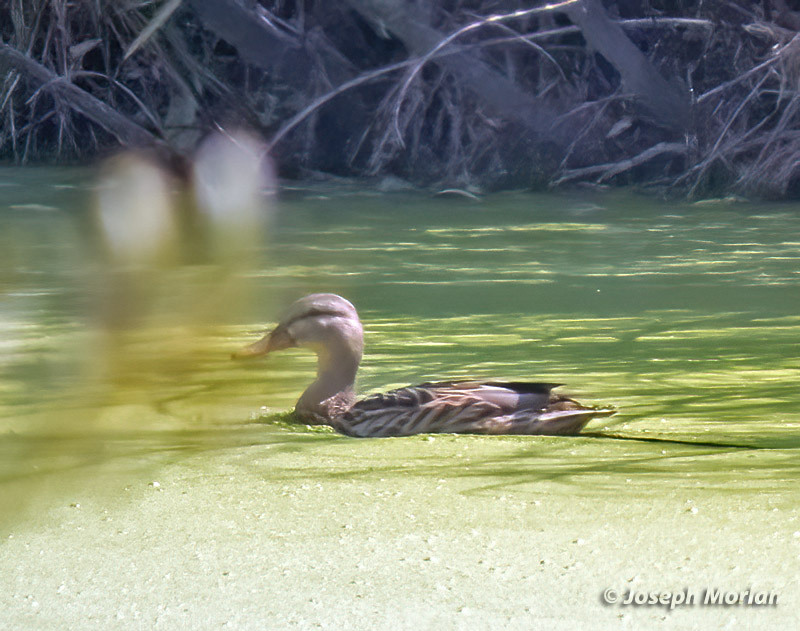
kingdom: Animalia
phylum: Chordata
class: Aves
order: Anseriformes
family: Anatidae
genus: Anas
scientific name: Anas platyrhynchos
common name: Mallard
